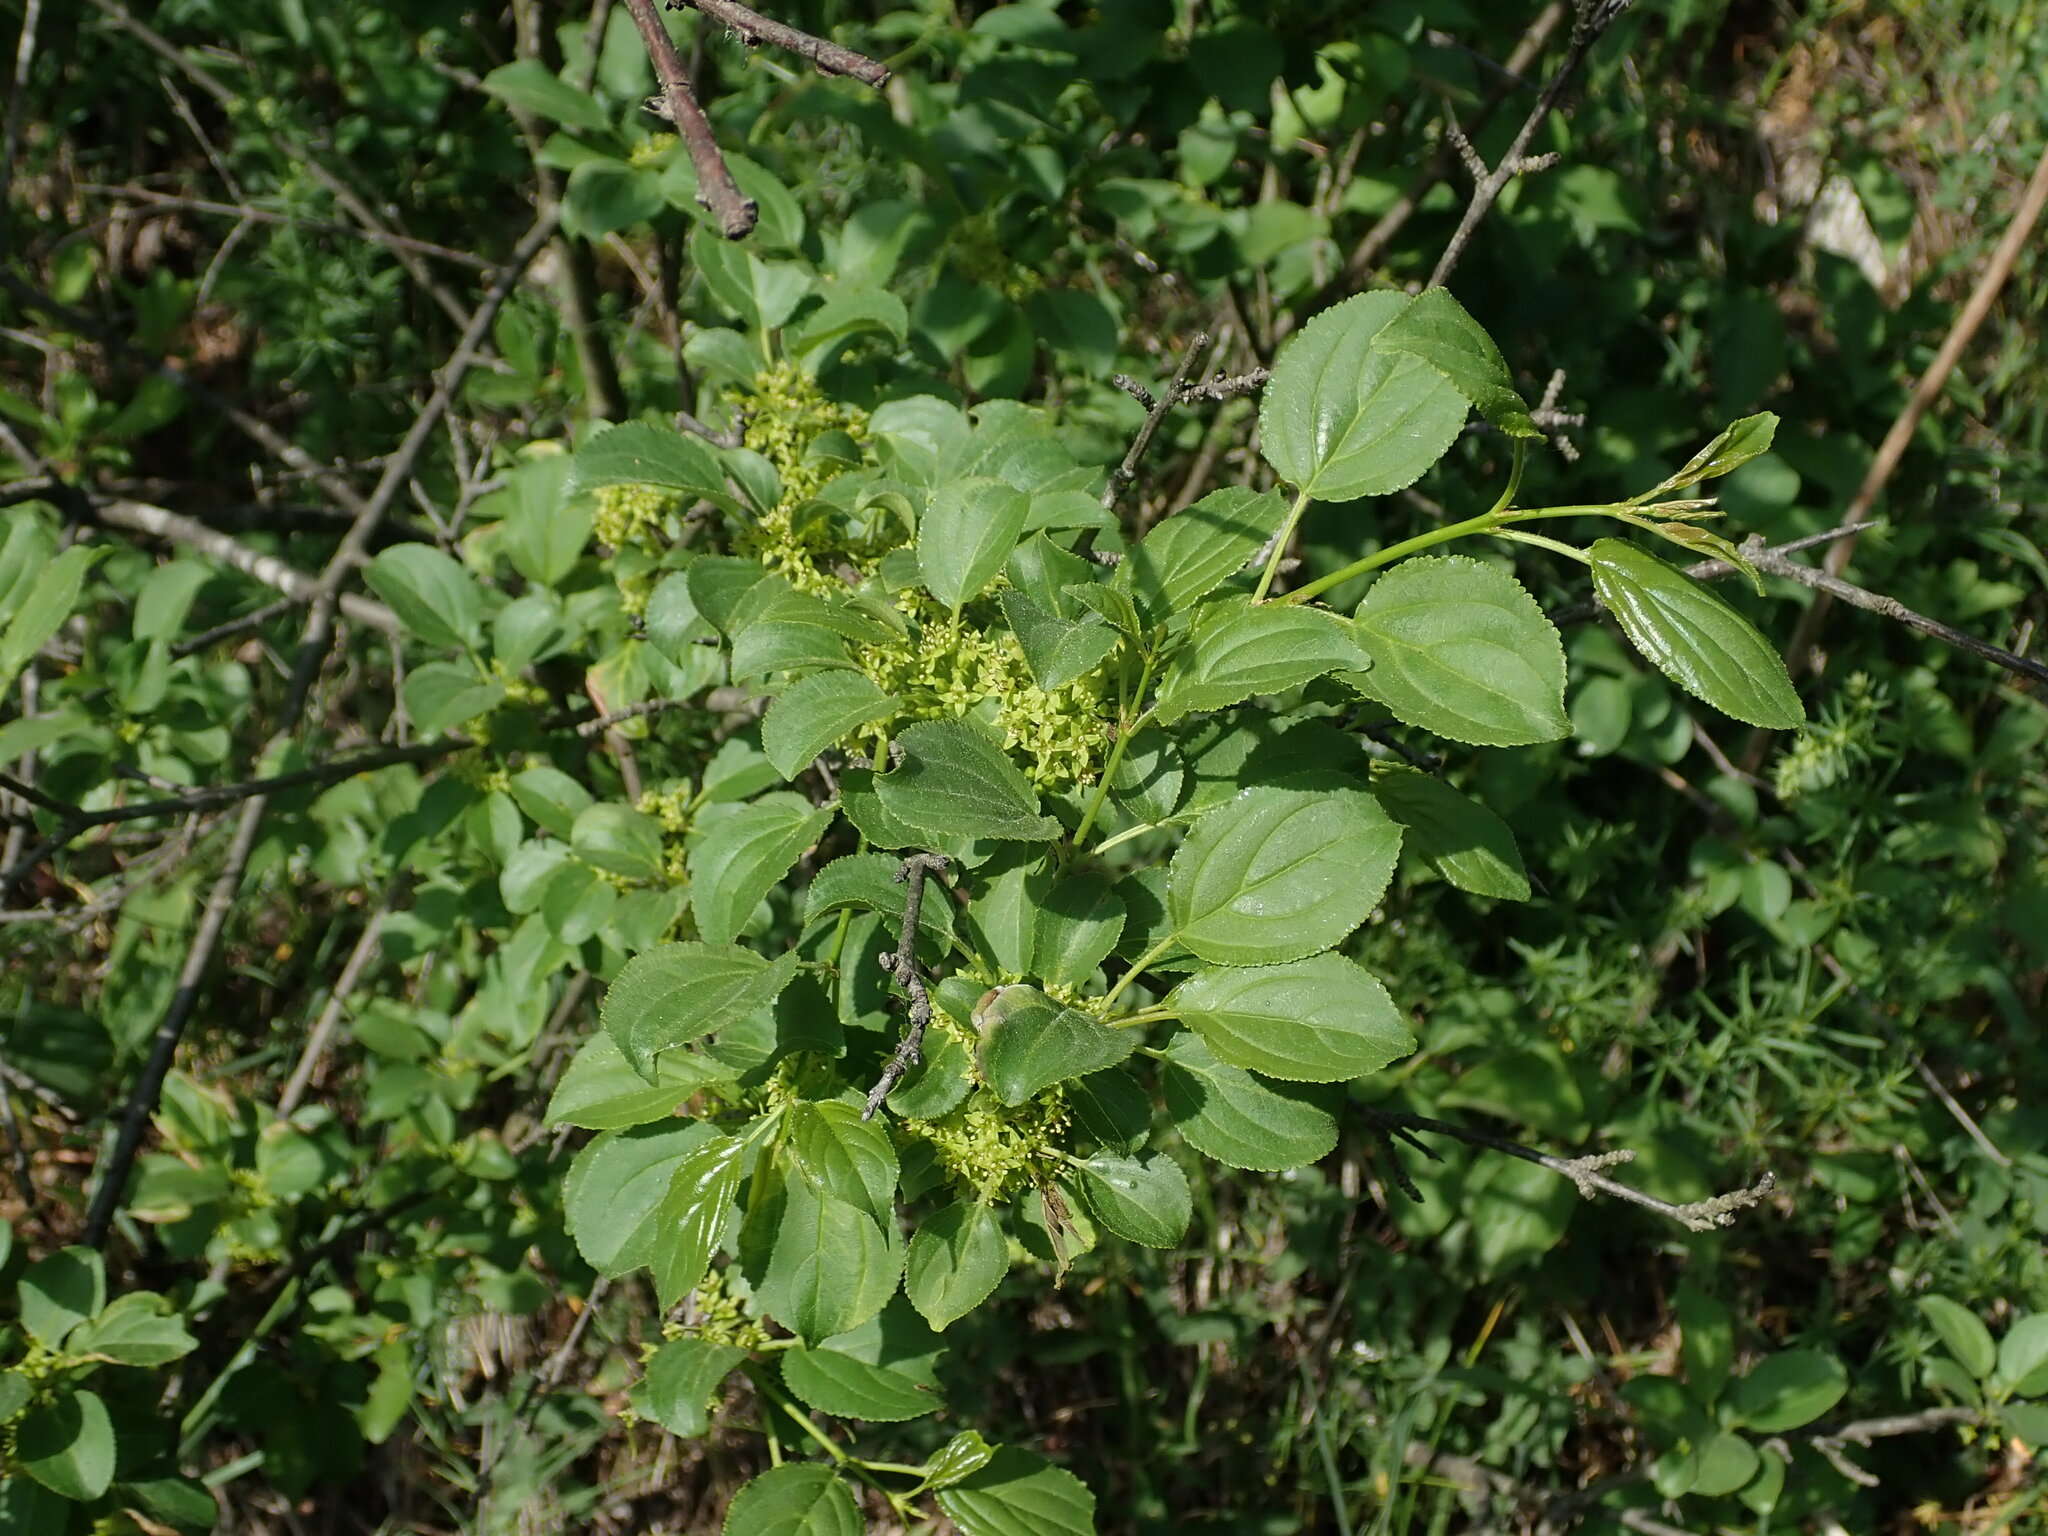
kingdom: Plantae
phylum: Tracheophyta
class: Magnoliopsida
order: Rosales
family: Rhamnaceae
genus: Rhamnus
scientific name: Rhamnus cathartica
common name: Common buckthorn
